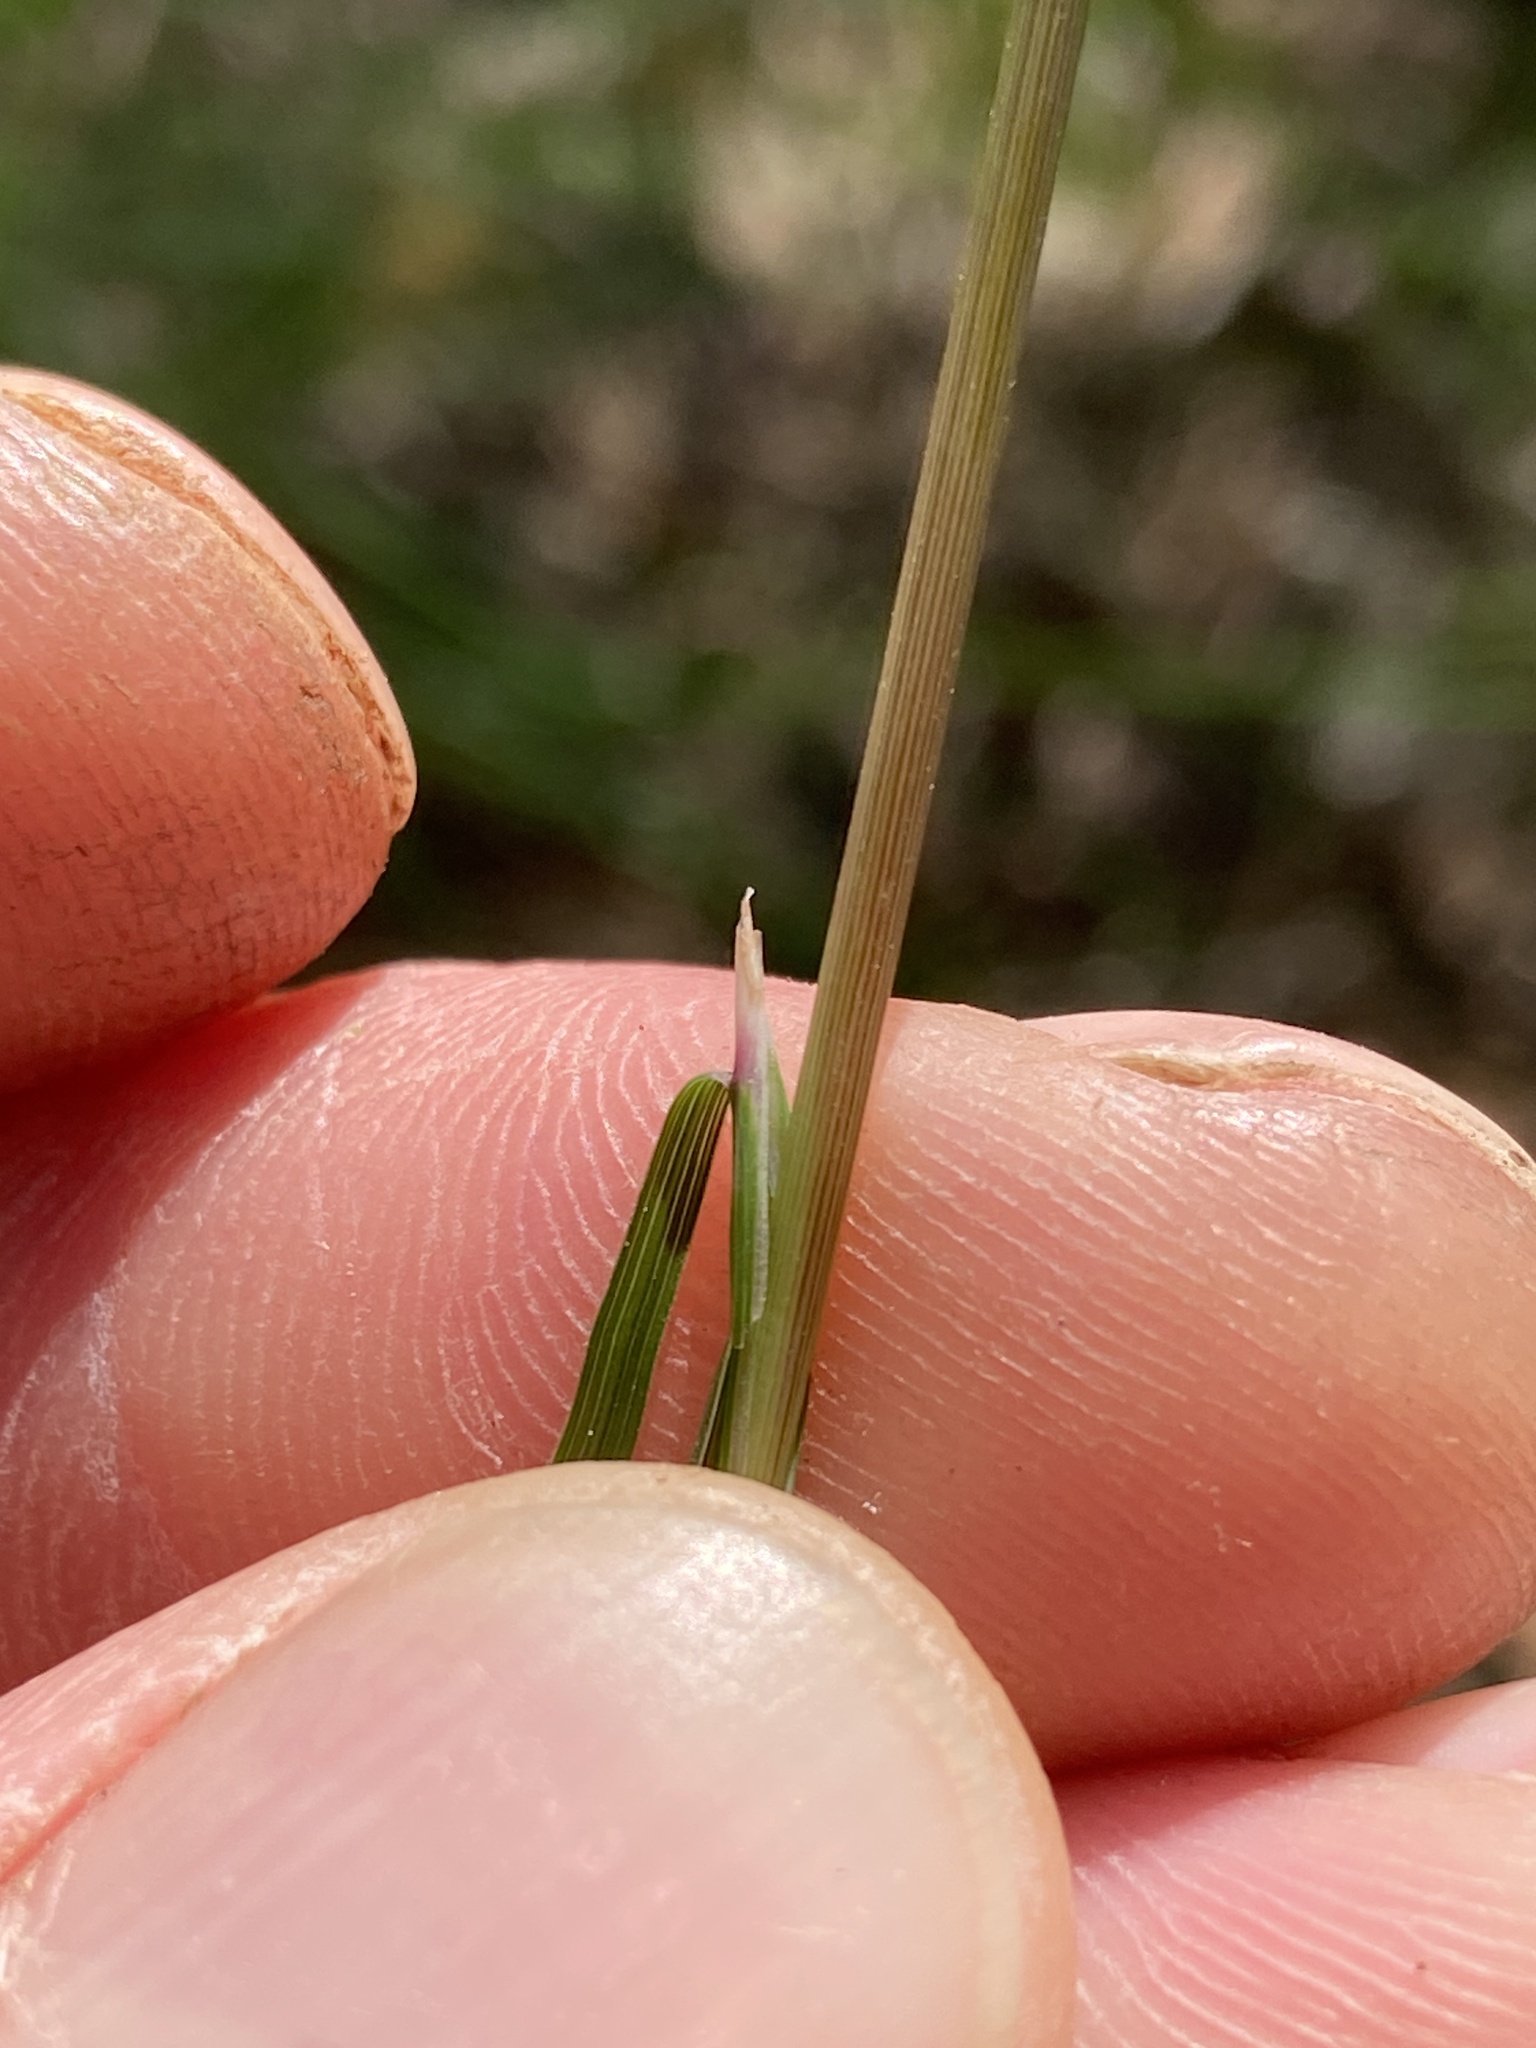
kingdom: Plantae
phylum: Tracheophyta
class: Liliopsida
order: Poales
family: Poaceae
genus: Piptochaetium
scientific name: Piptochaetium avenaceum
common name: Black bunchgrass
